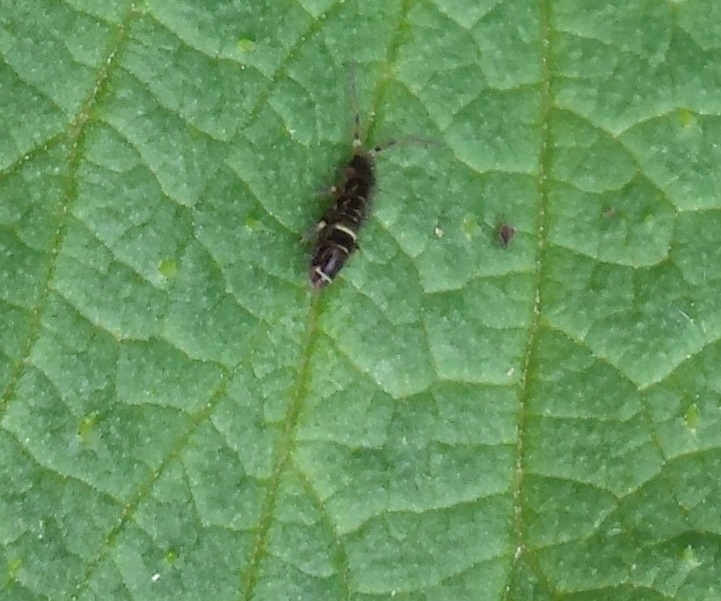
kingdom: Animalia
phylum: Arthropoda
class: Collembola
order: Entomobryomorpha
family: Orchesellidae
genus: Orchesella
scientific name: Orchesella cincta
